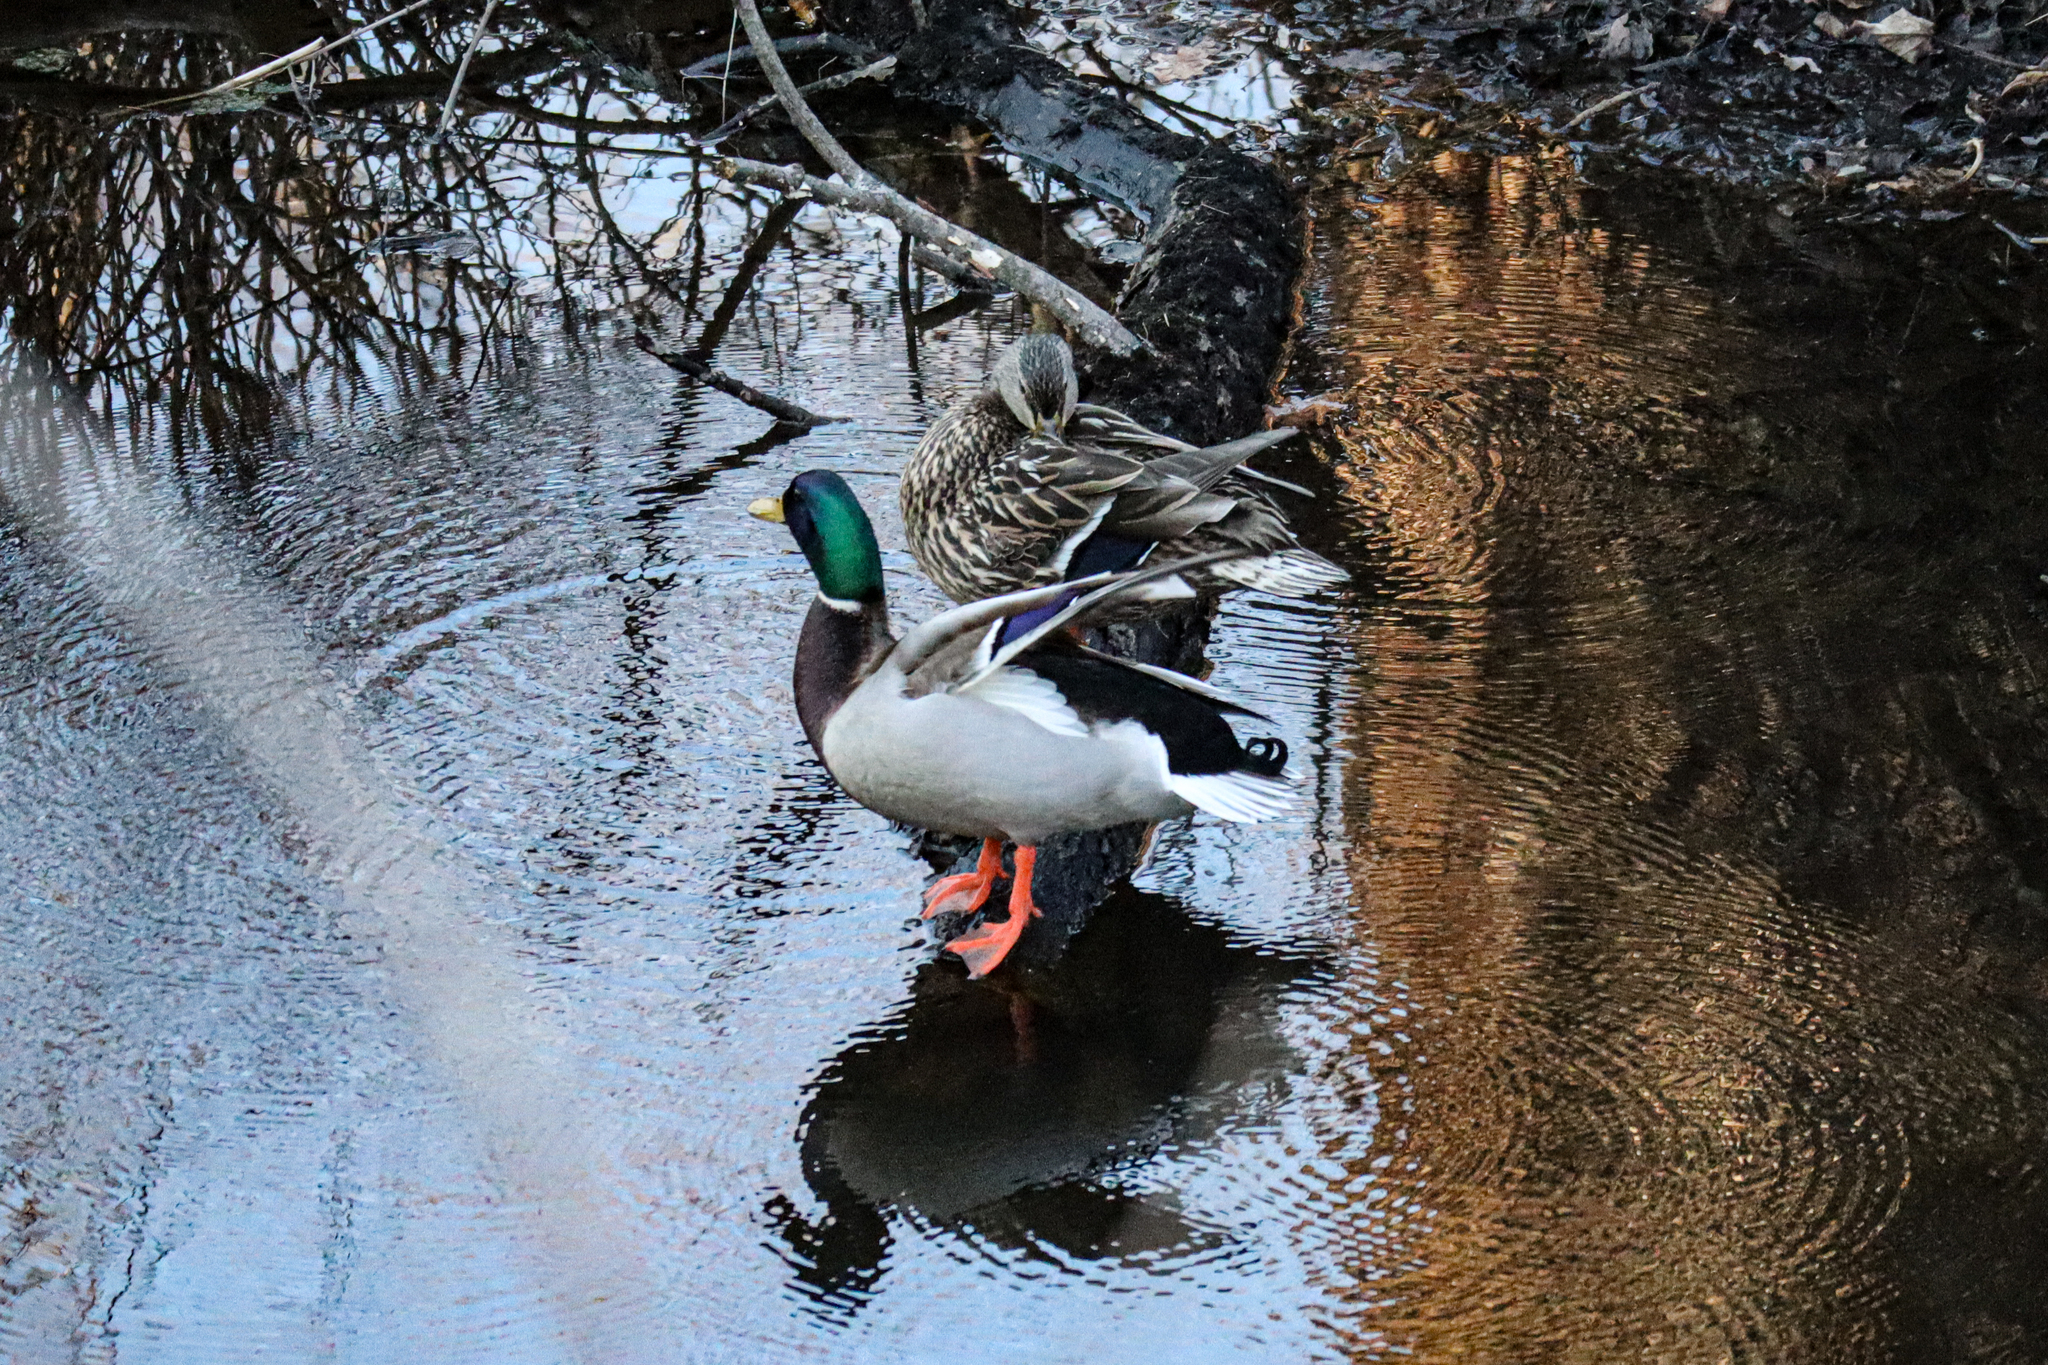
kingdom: Animalia
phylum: Chordata
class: Aves
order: Anseriformes
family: Anatidae
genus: Anas
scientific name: Anas platyrhynchos
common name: Mallard
